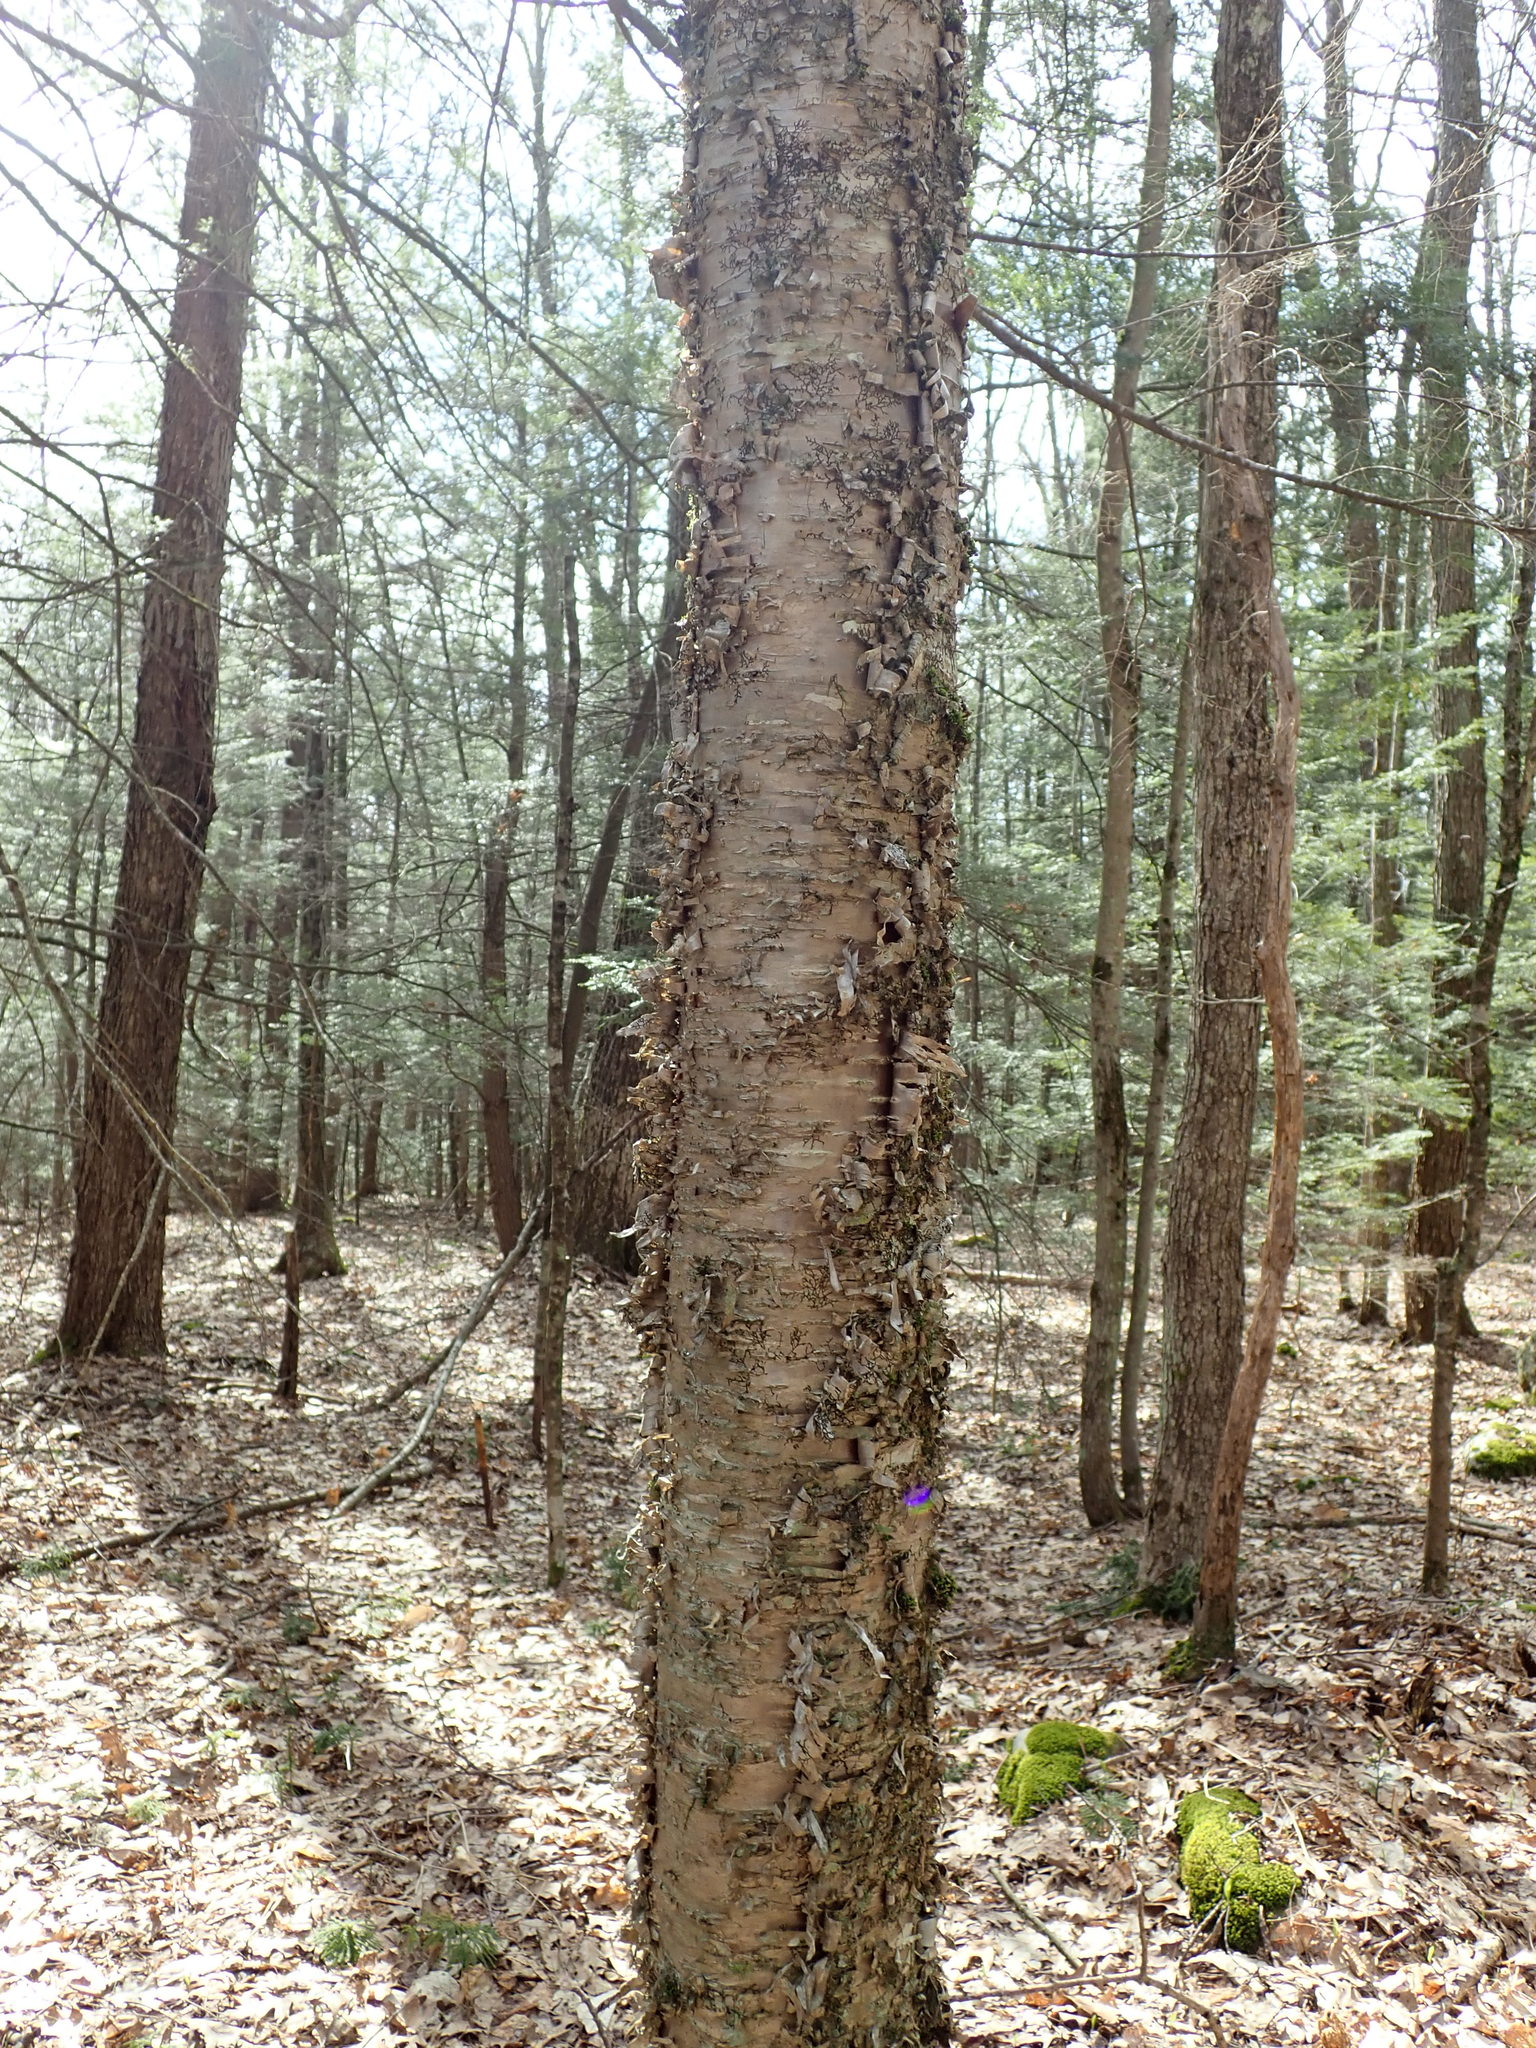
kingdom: Plantae
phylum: Tracheophyta
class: Magnoliopsida
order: Fagales
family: Betulaceae
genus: Betula
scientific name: Betula alleghaniensis
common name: Yellow birch
